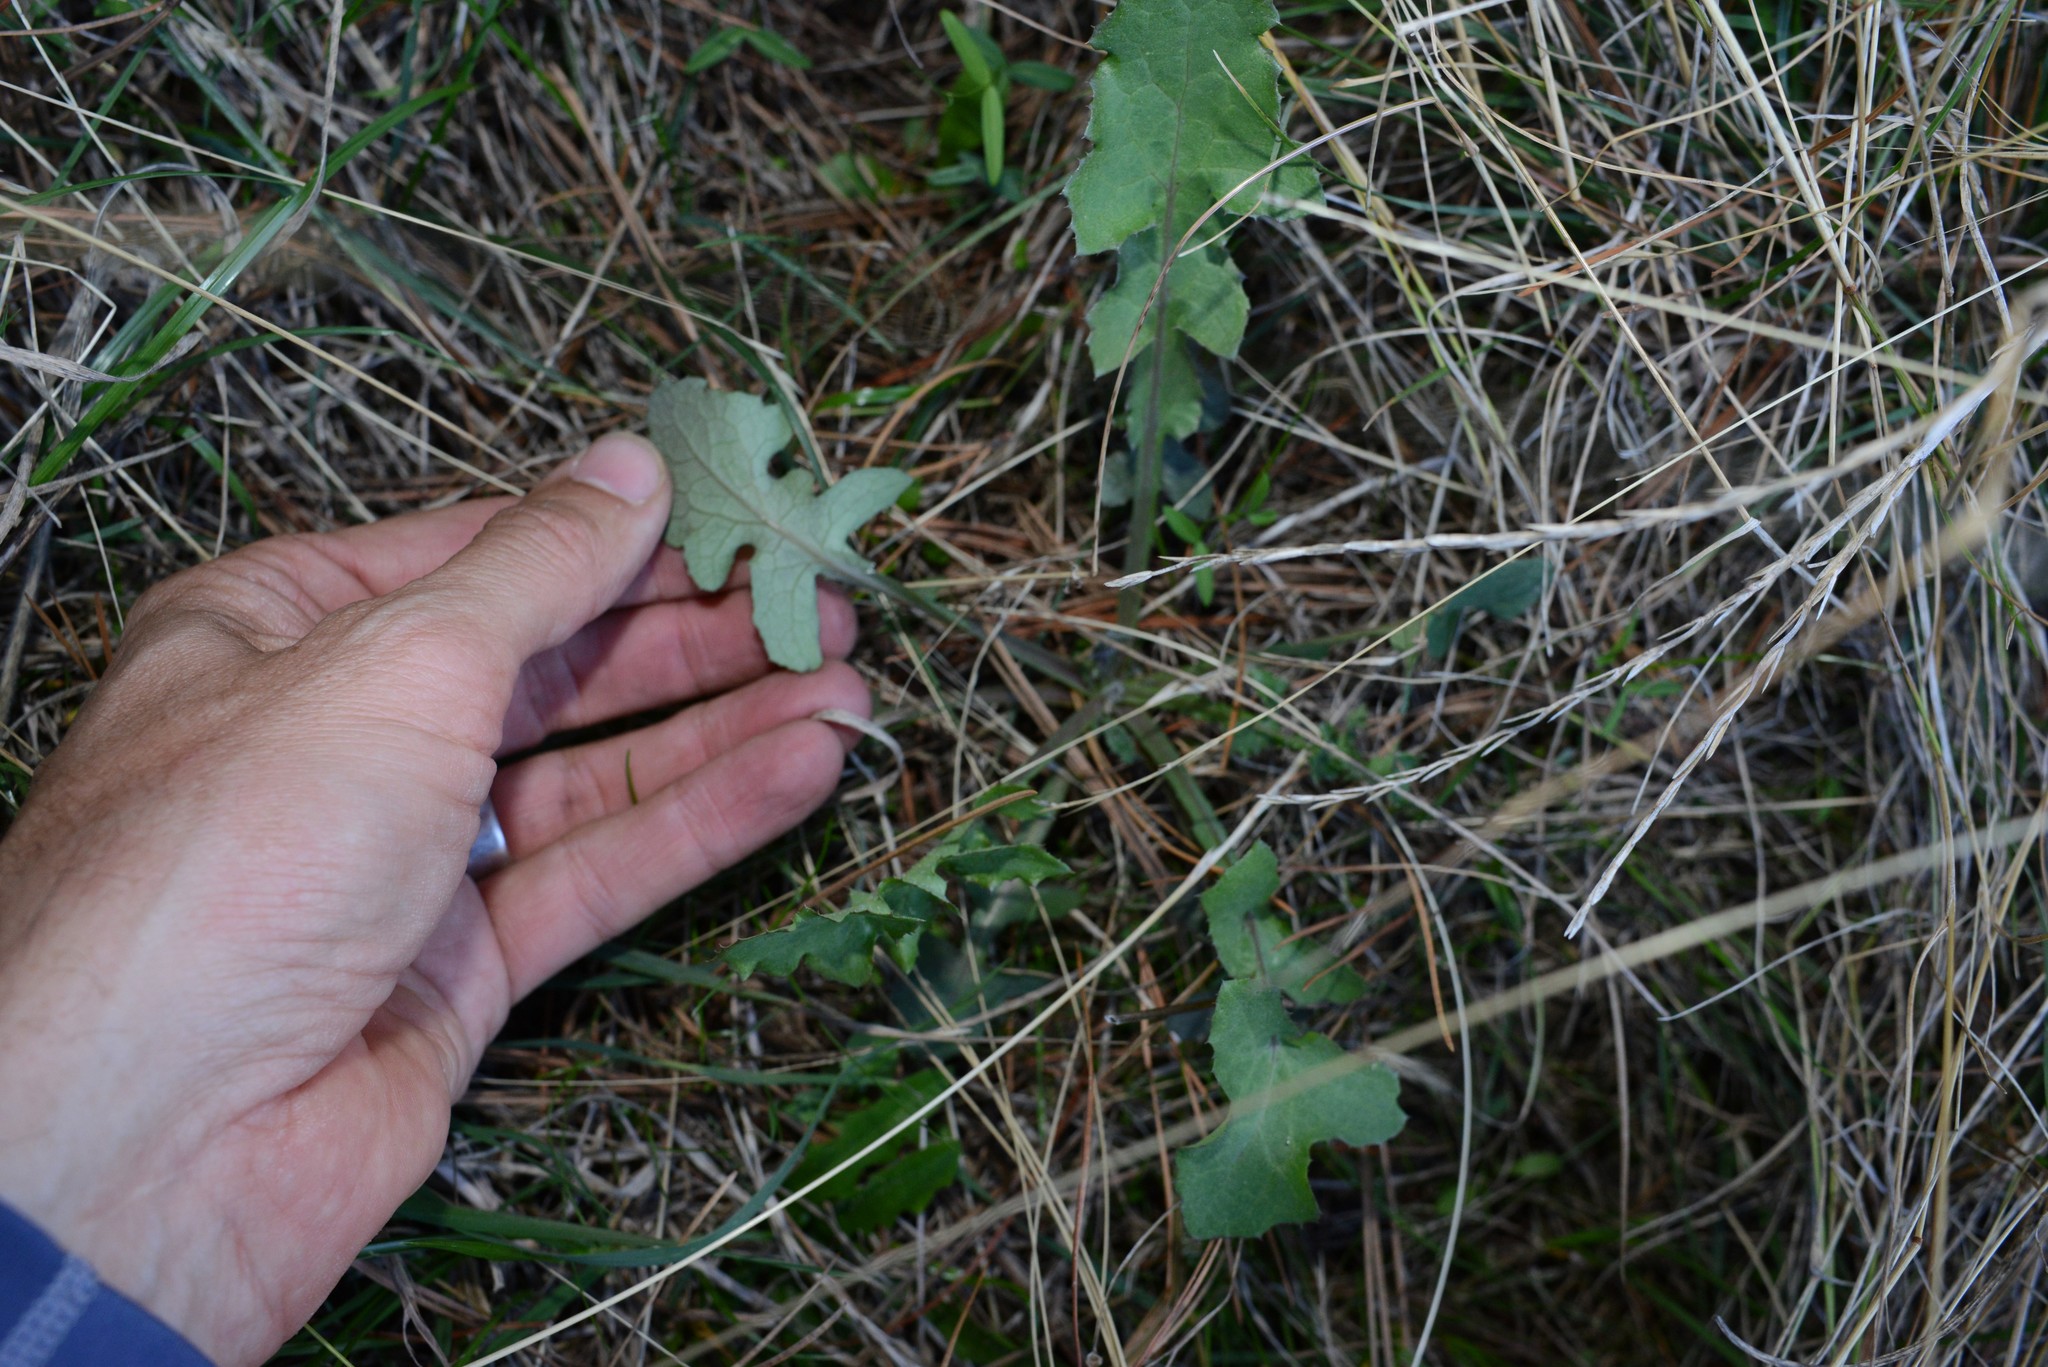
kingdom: Plantae
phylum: Tracheophyta
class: Magnoliopsida
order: Asterales
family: Asteraceae
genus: Sonchus
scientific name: Sonchus oleraceus
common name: Common sowthistle
